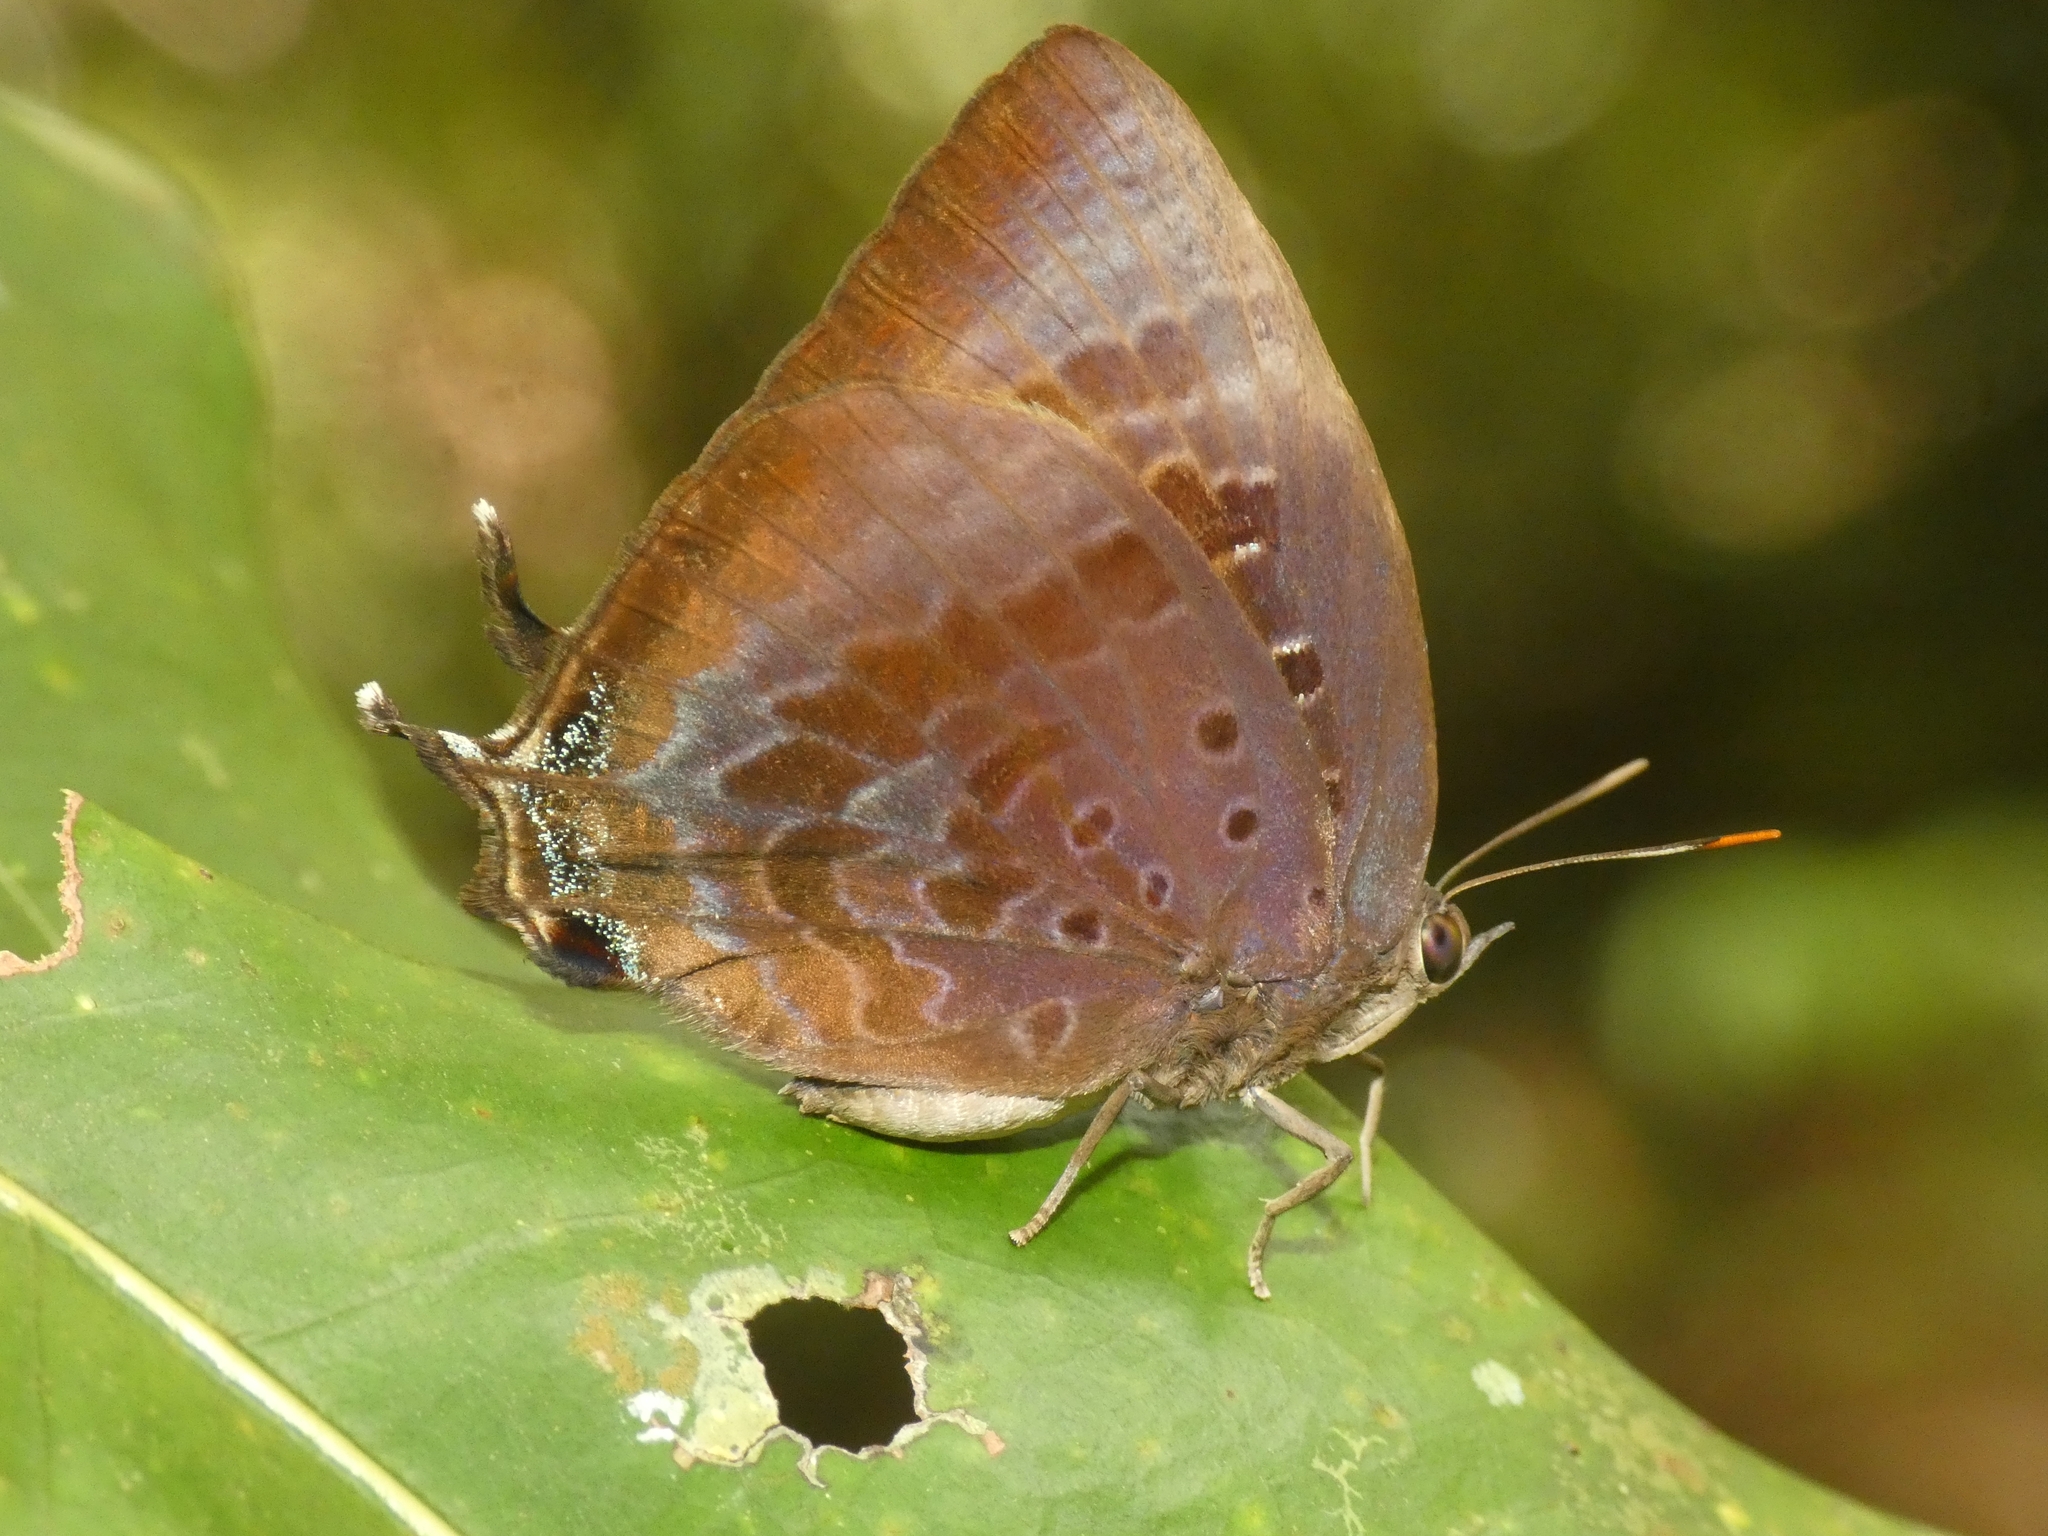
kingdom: Animalia
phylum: Arthropoda
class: Insecta
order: Lepidoptera
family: Lycaenidae
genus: Arhopala
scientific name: Arhopala madytus
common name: Bright oak-blue
